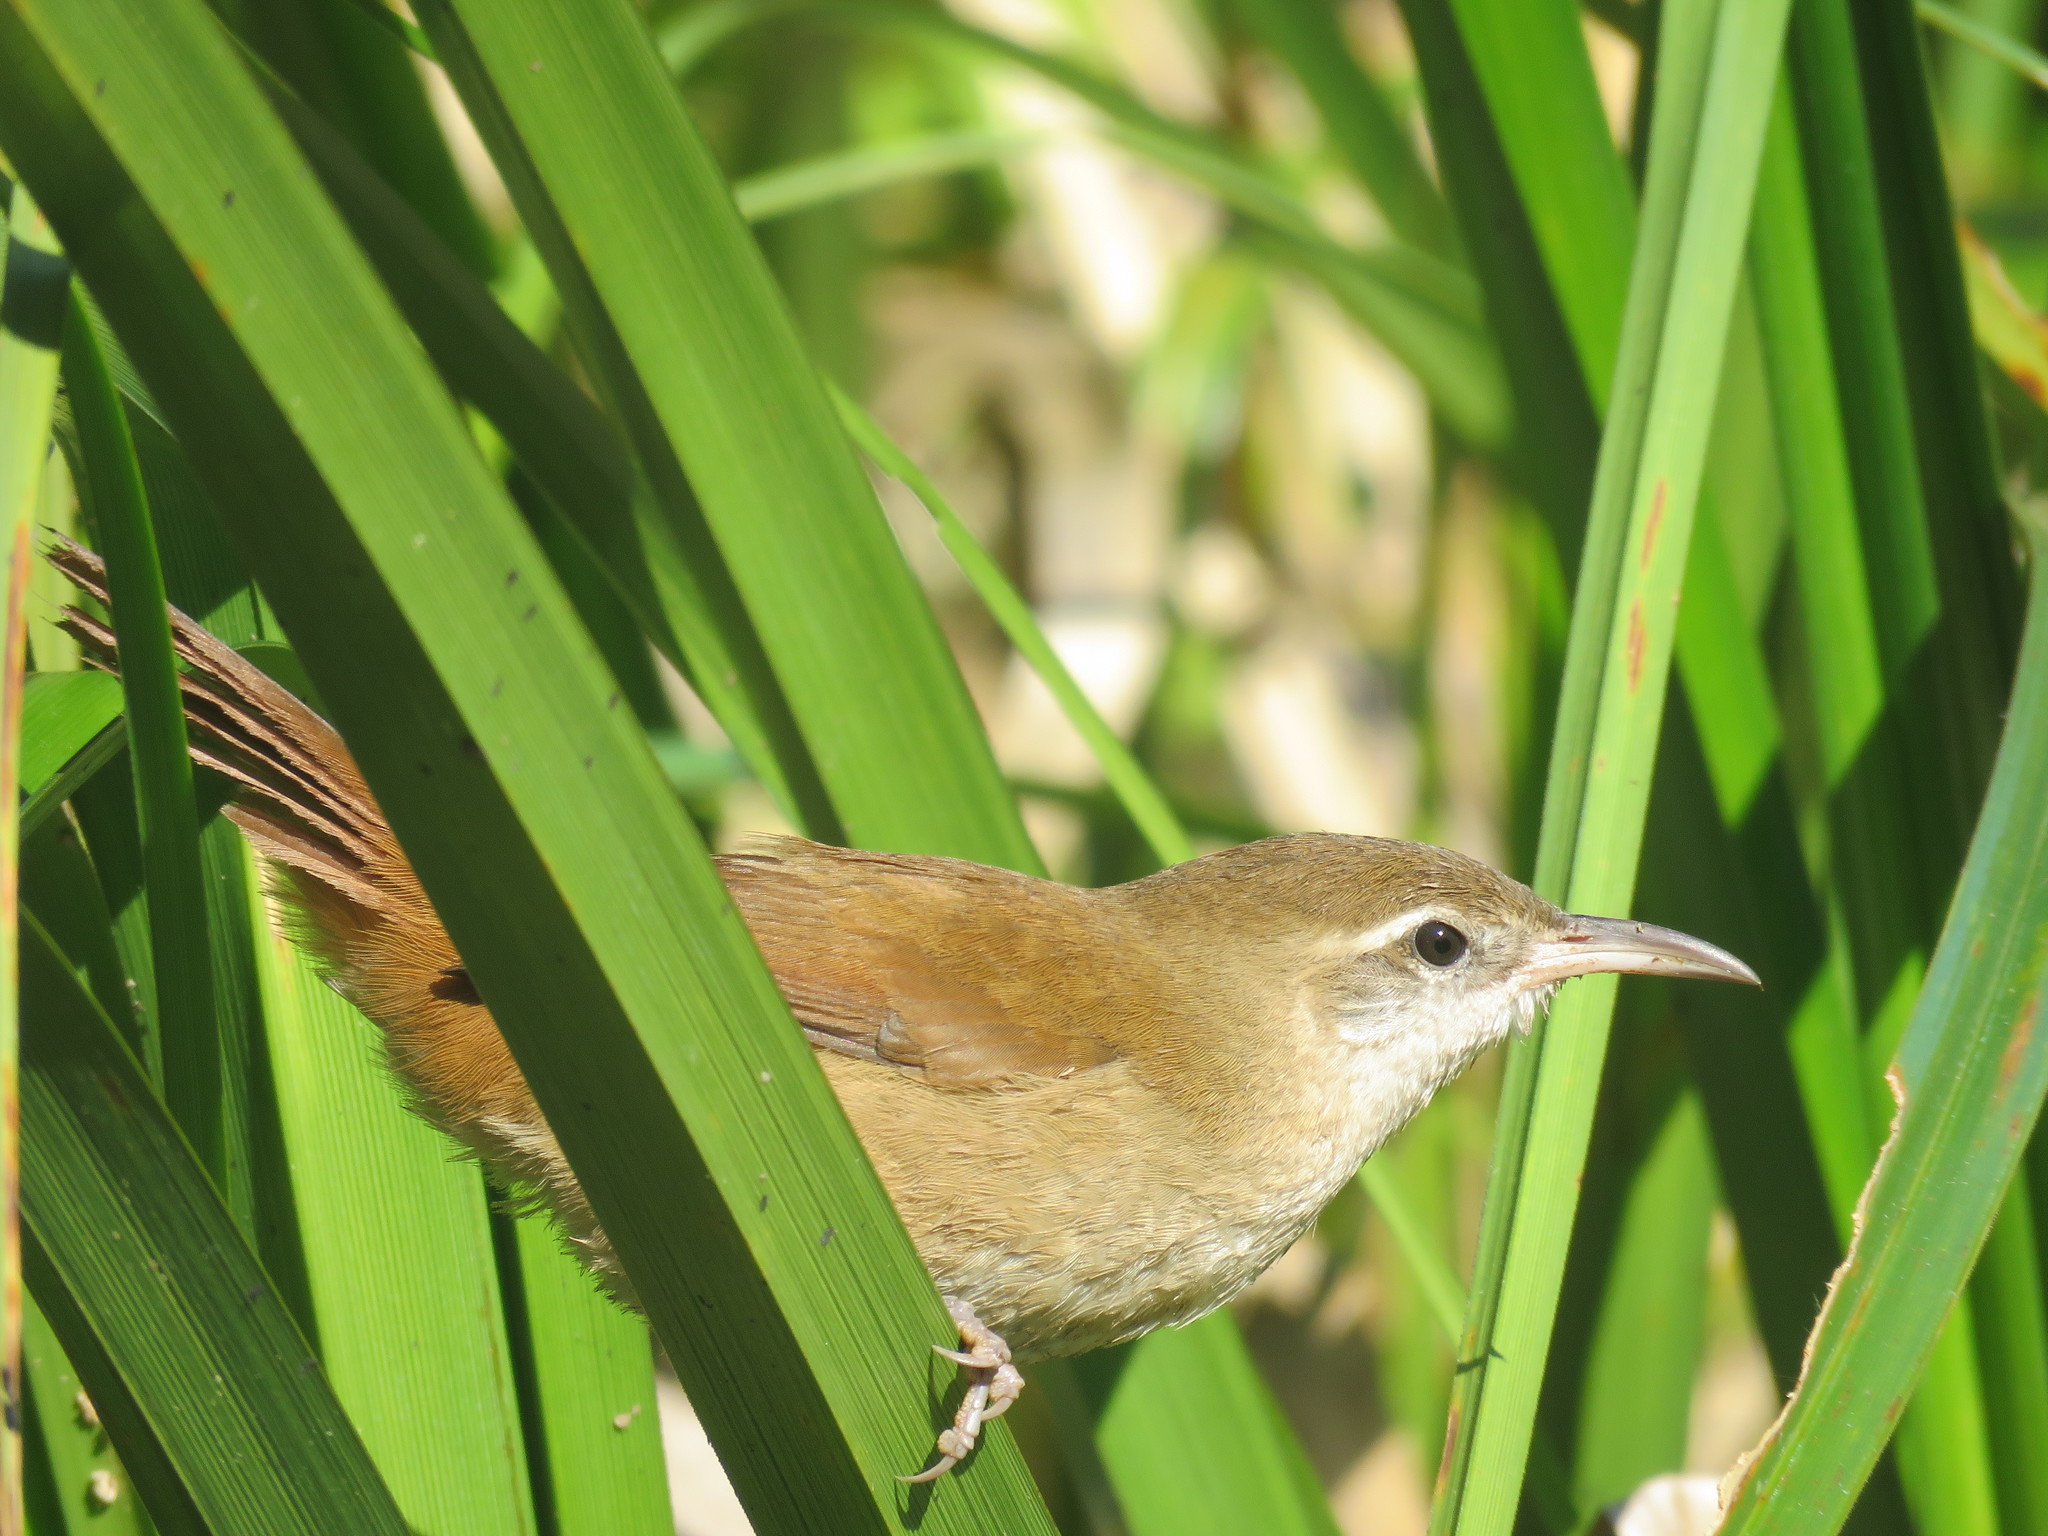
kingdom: Animalia
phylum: Chordata
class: Aves
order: Passeriformes
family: Furnariidae
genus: Limnornis
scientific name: Limnornis curvirostris
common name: Curve-billed reedhaunter
